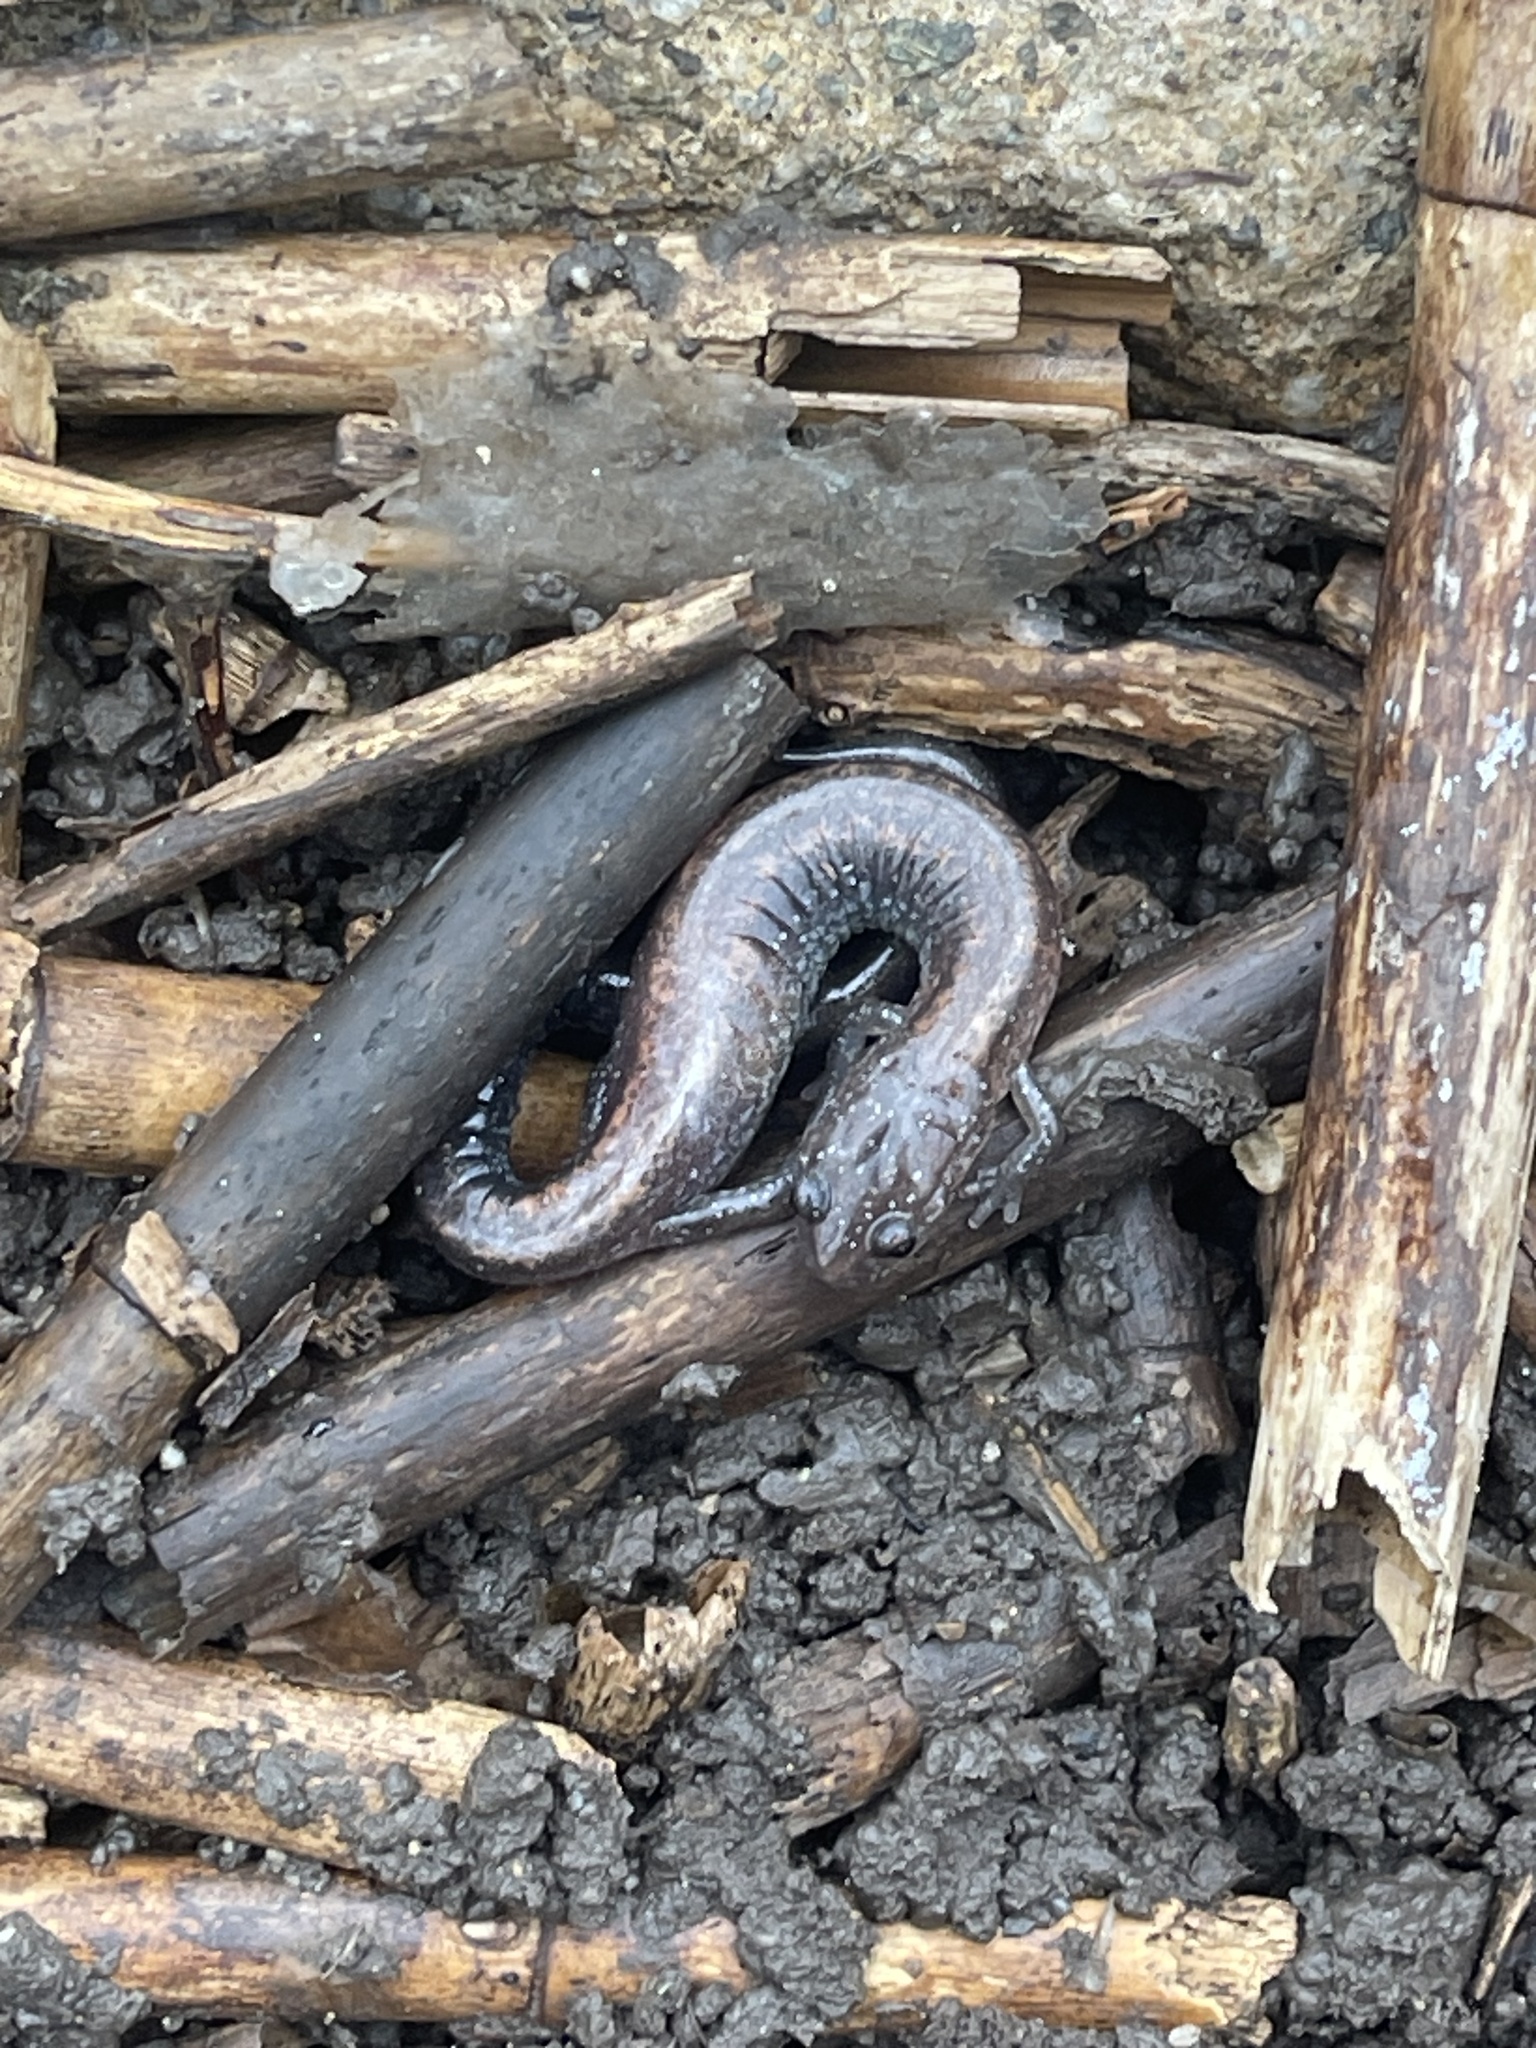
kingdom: Animalia
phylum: Chordata
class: Amphibia
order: Caudata
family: Plethodontidae
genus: Plethodon
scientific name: Plethodon cinereus
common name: Redback salamander
